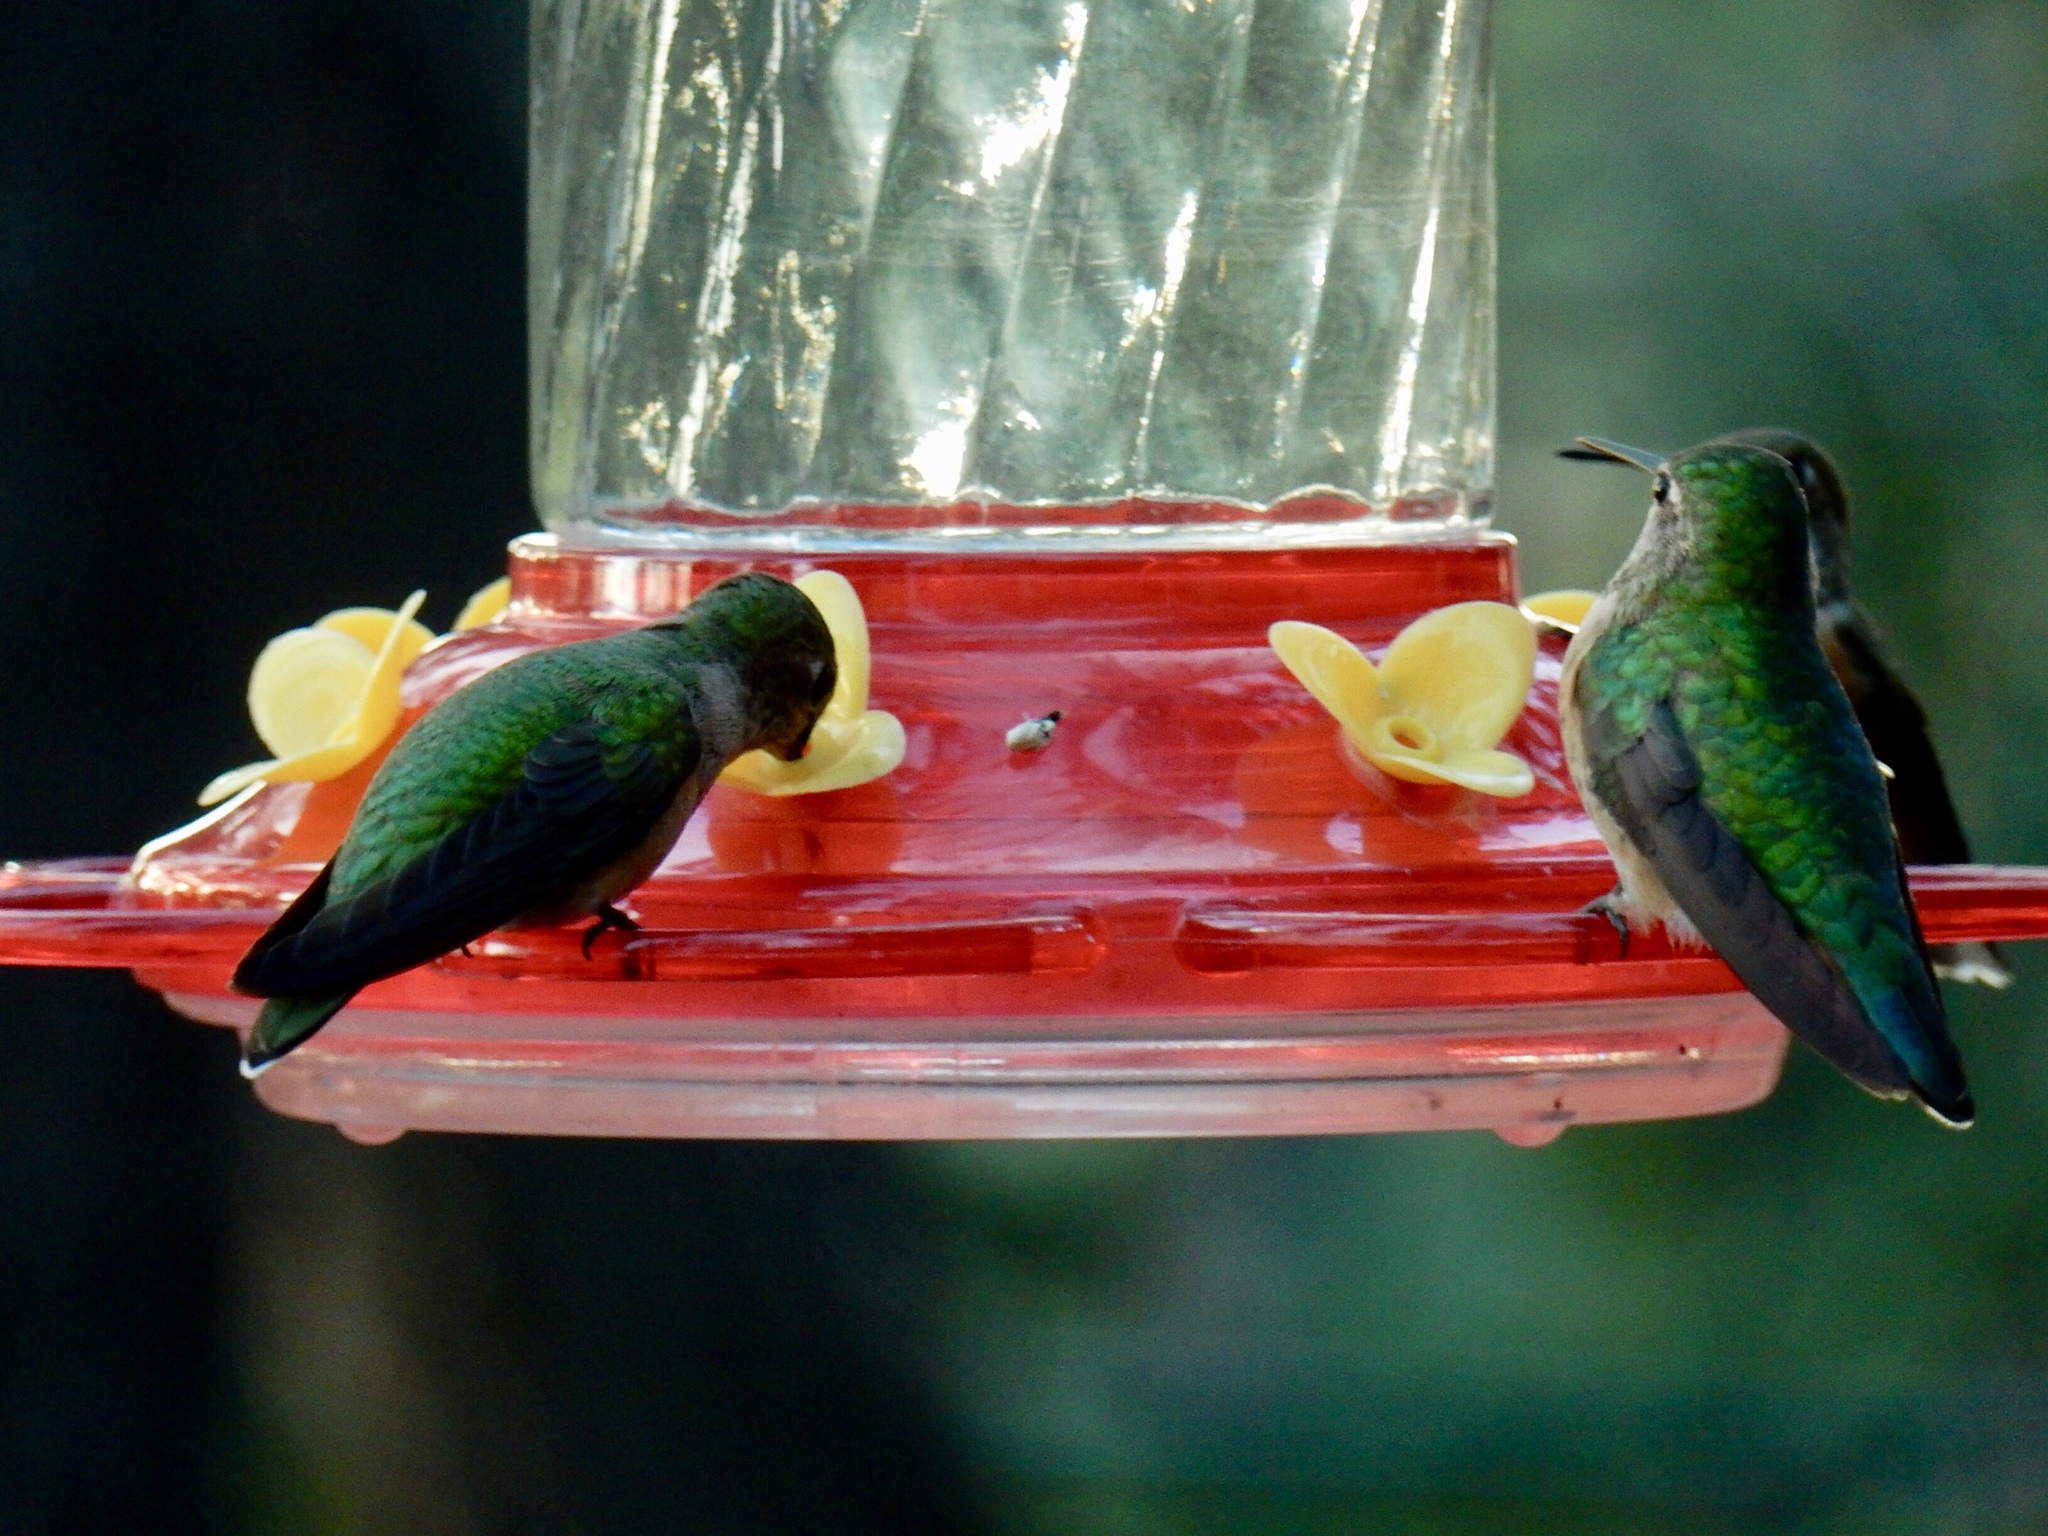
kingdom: Animalia
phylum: Chordata
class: Aves
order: Apodiformes
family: Trochilidae
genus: Selasphorus
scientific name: Selasphorus platycercus
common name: Broad-tailed hummingbird
